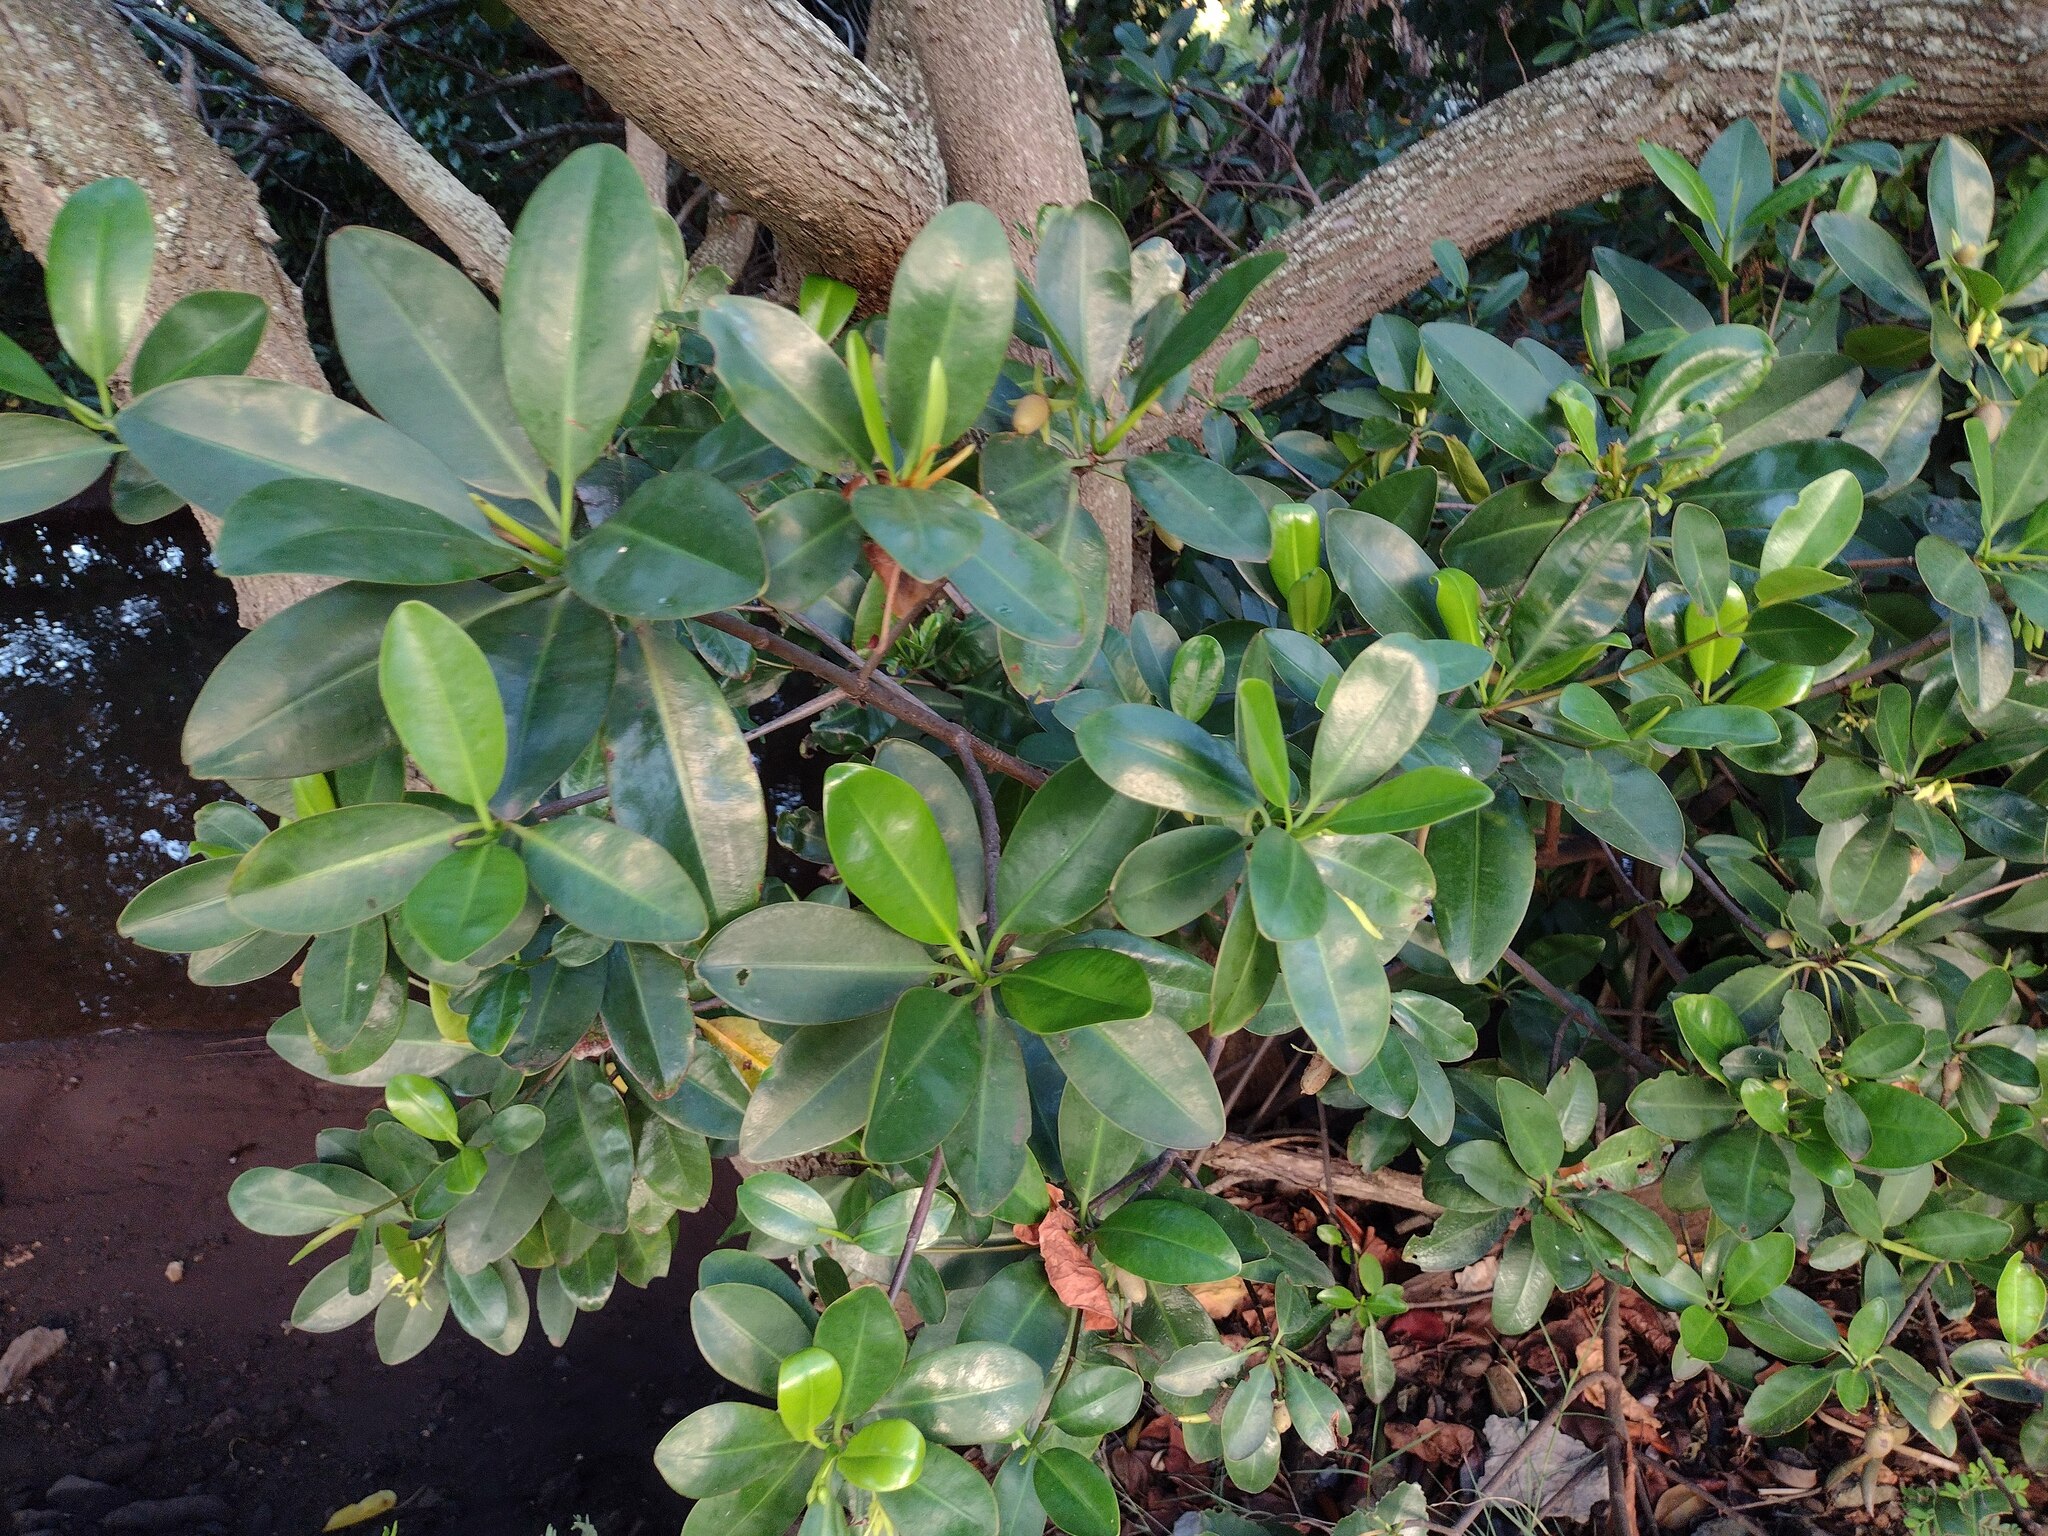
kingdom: Plantae
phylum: Tracheophyta
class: Magnoliopsida
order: Malpighiales
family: Rhizophoraceae
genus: Rhizophora
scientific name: Rhizophora mangle
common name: Red mangrove
